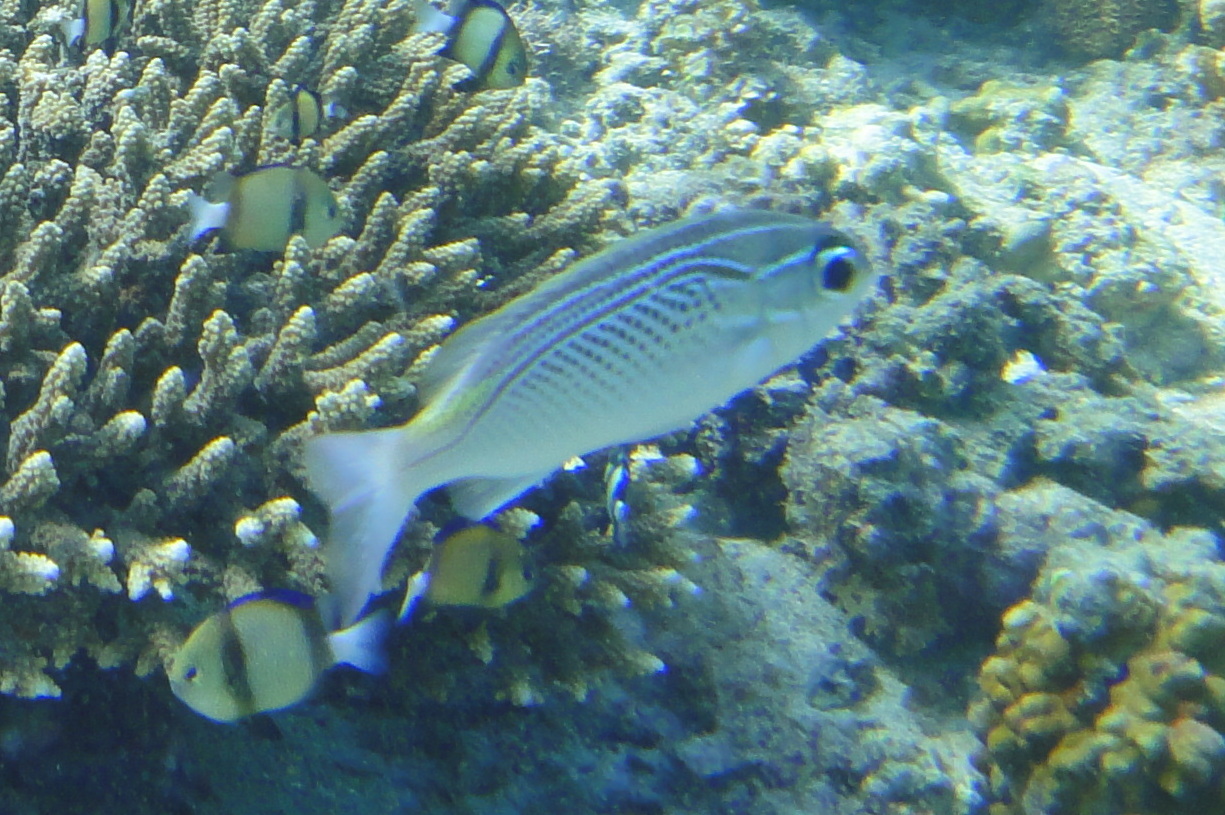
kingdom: Animalia
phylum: Chordata
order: Perciformes
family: Nemipteridae
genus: Scolopsis
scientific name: Scolopsis ghanam
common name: Arabian monocle bream
